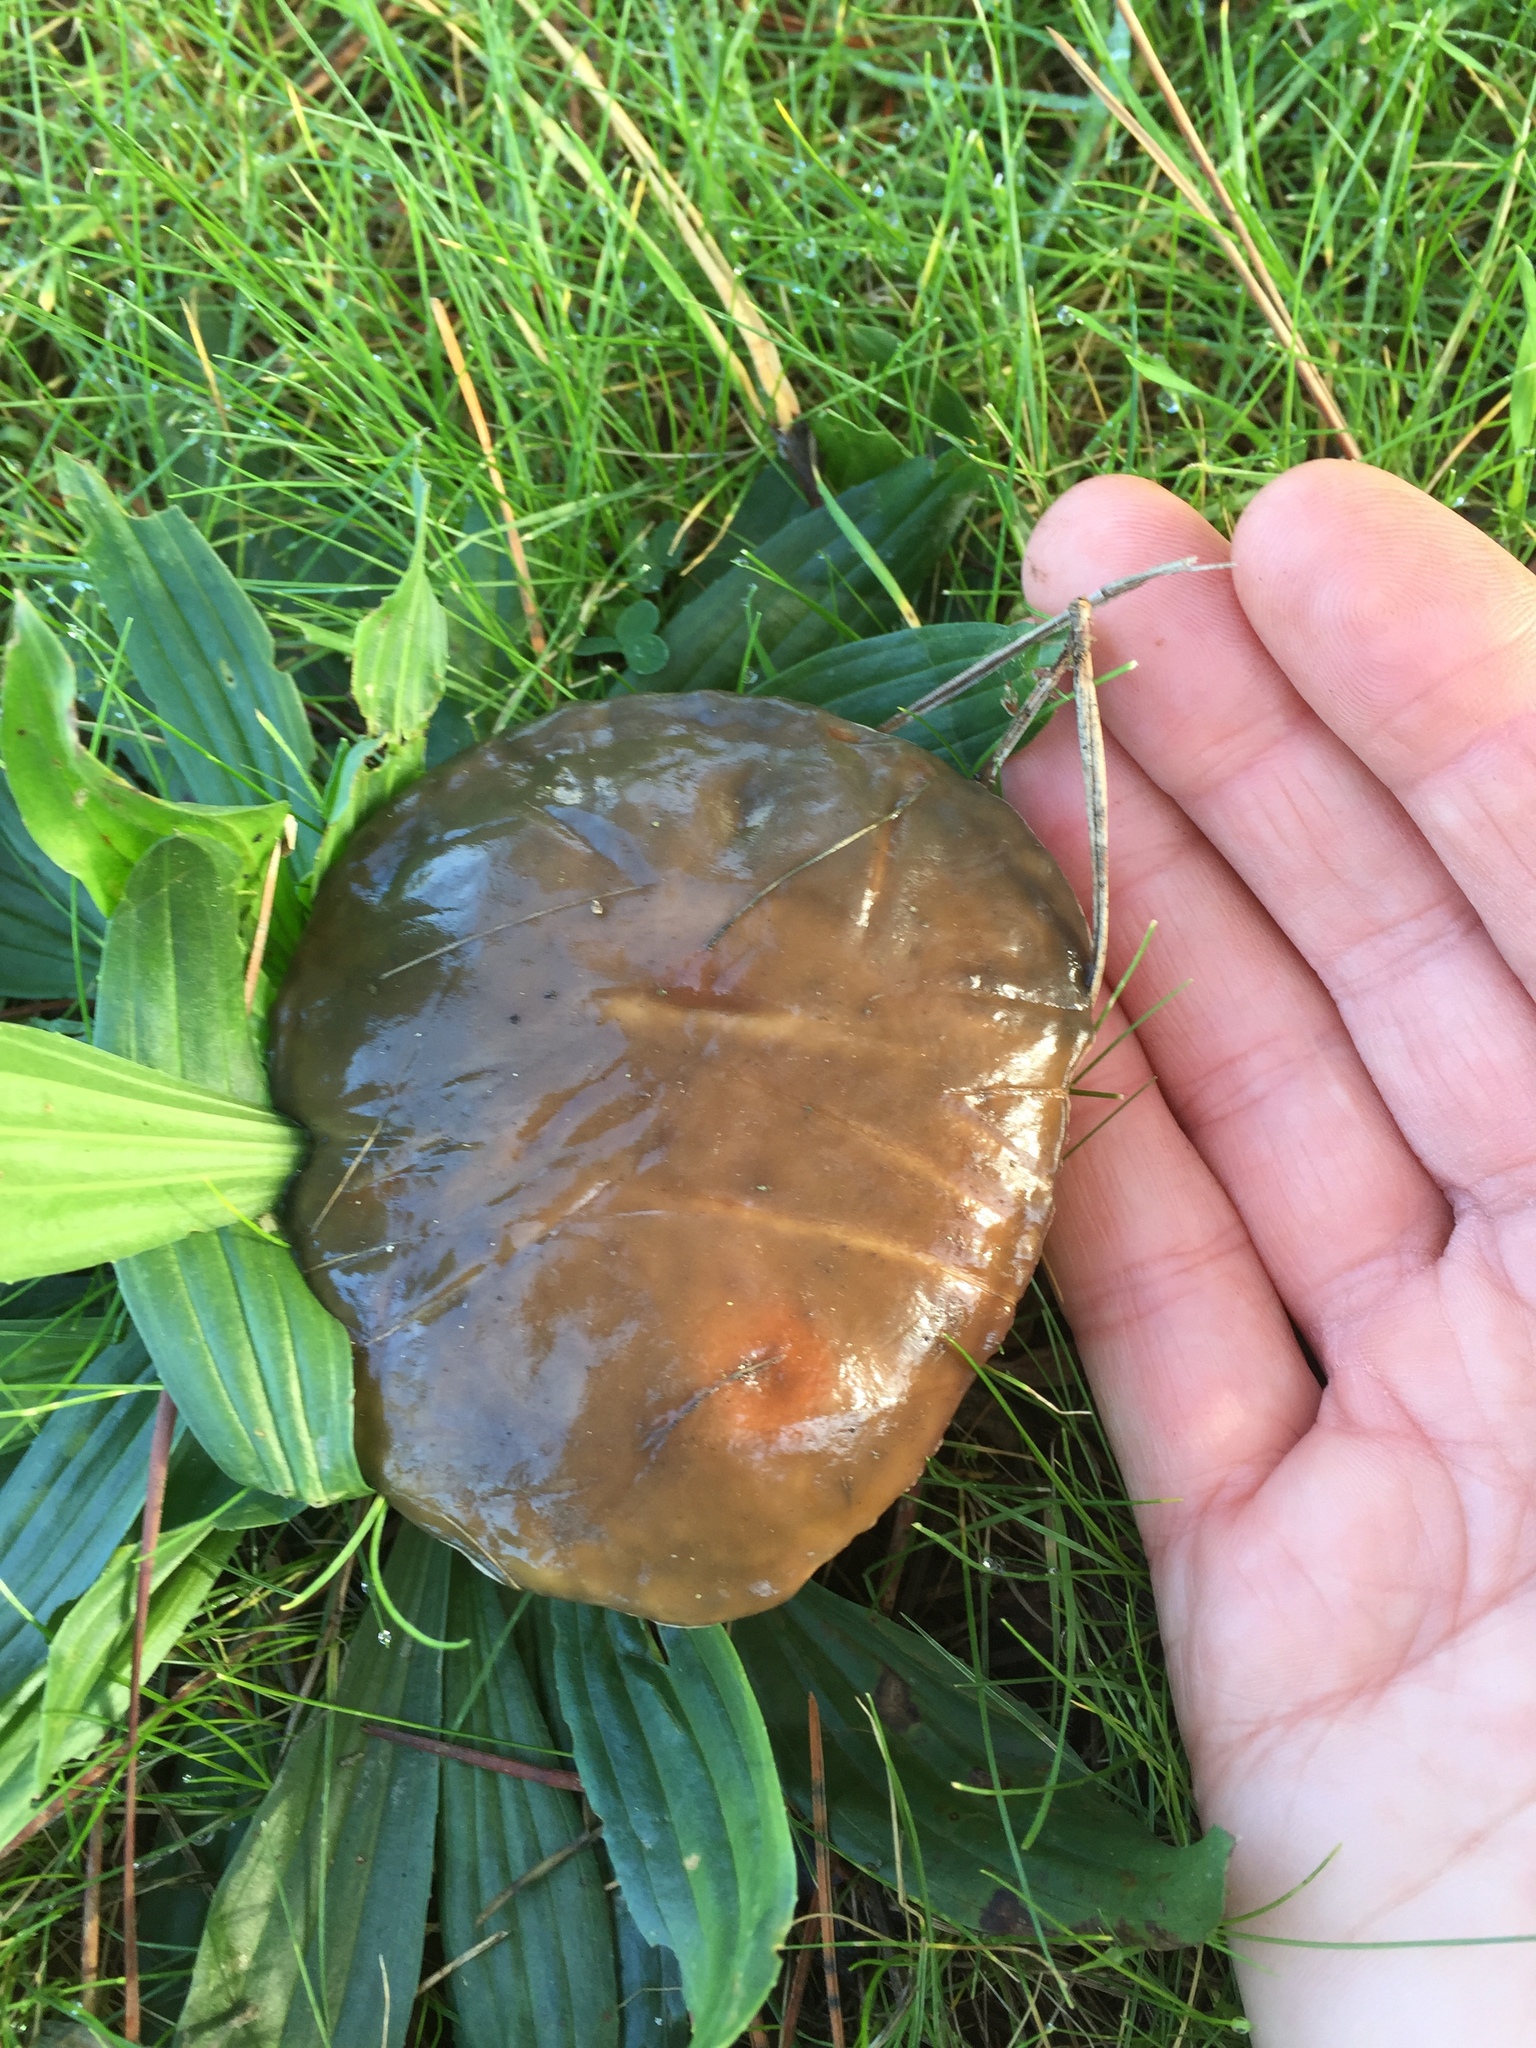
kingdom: Fungi
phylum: Basidiomycota
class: Agaricomycetes
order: Boletales
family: Suillaceae
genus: Suillus
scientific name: Suillus pungens
